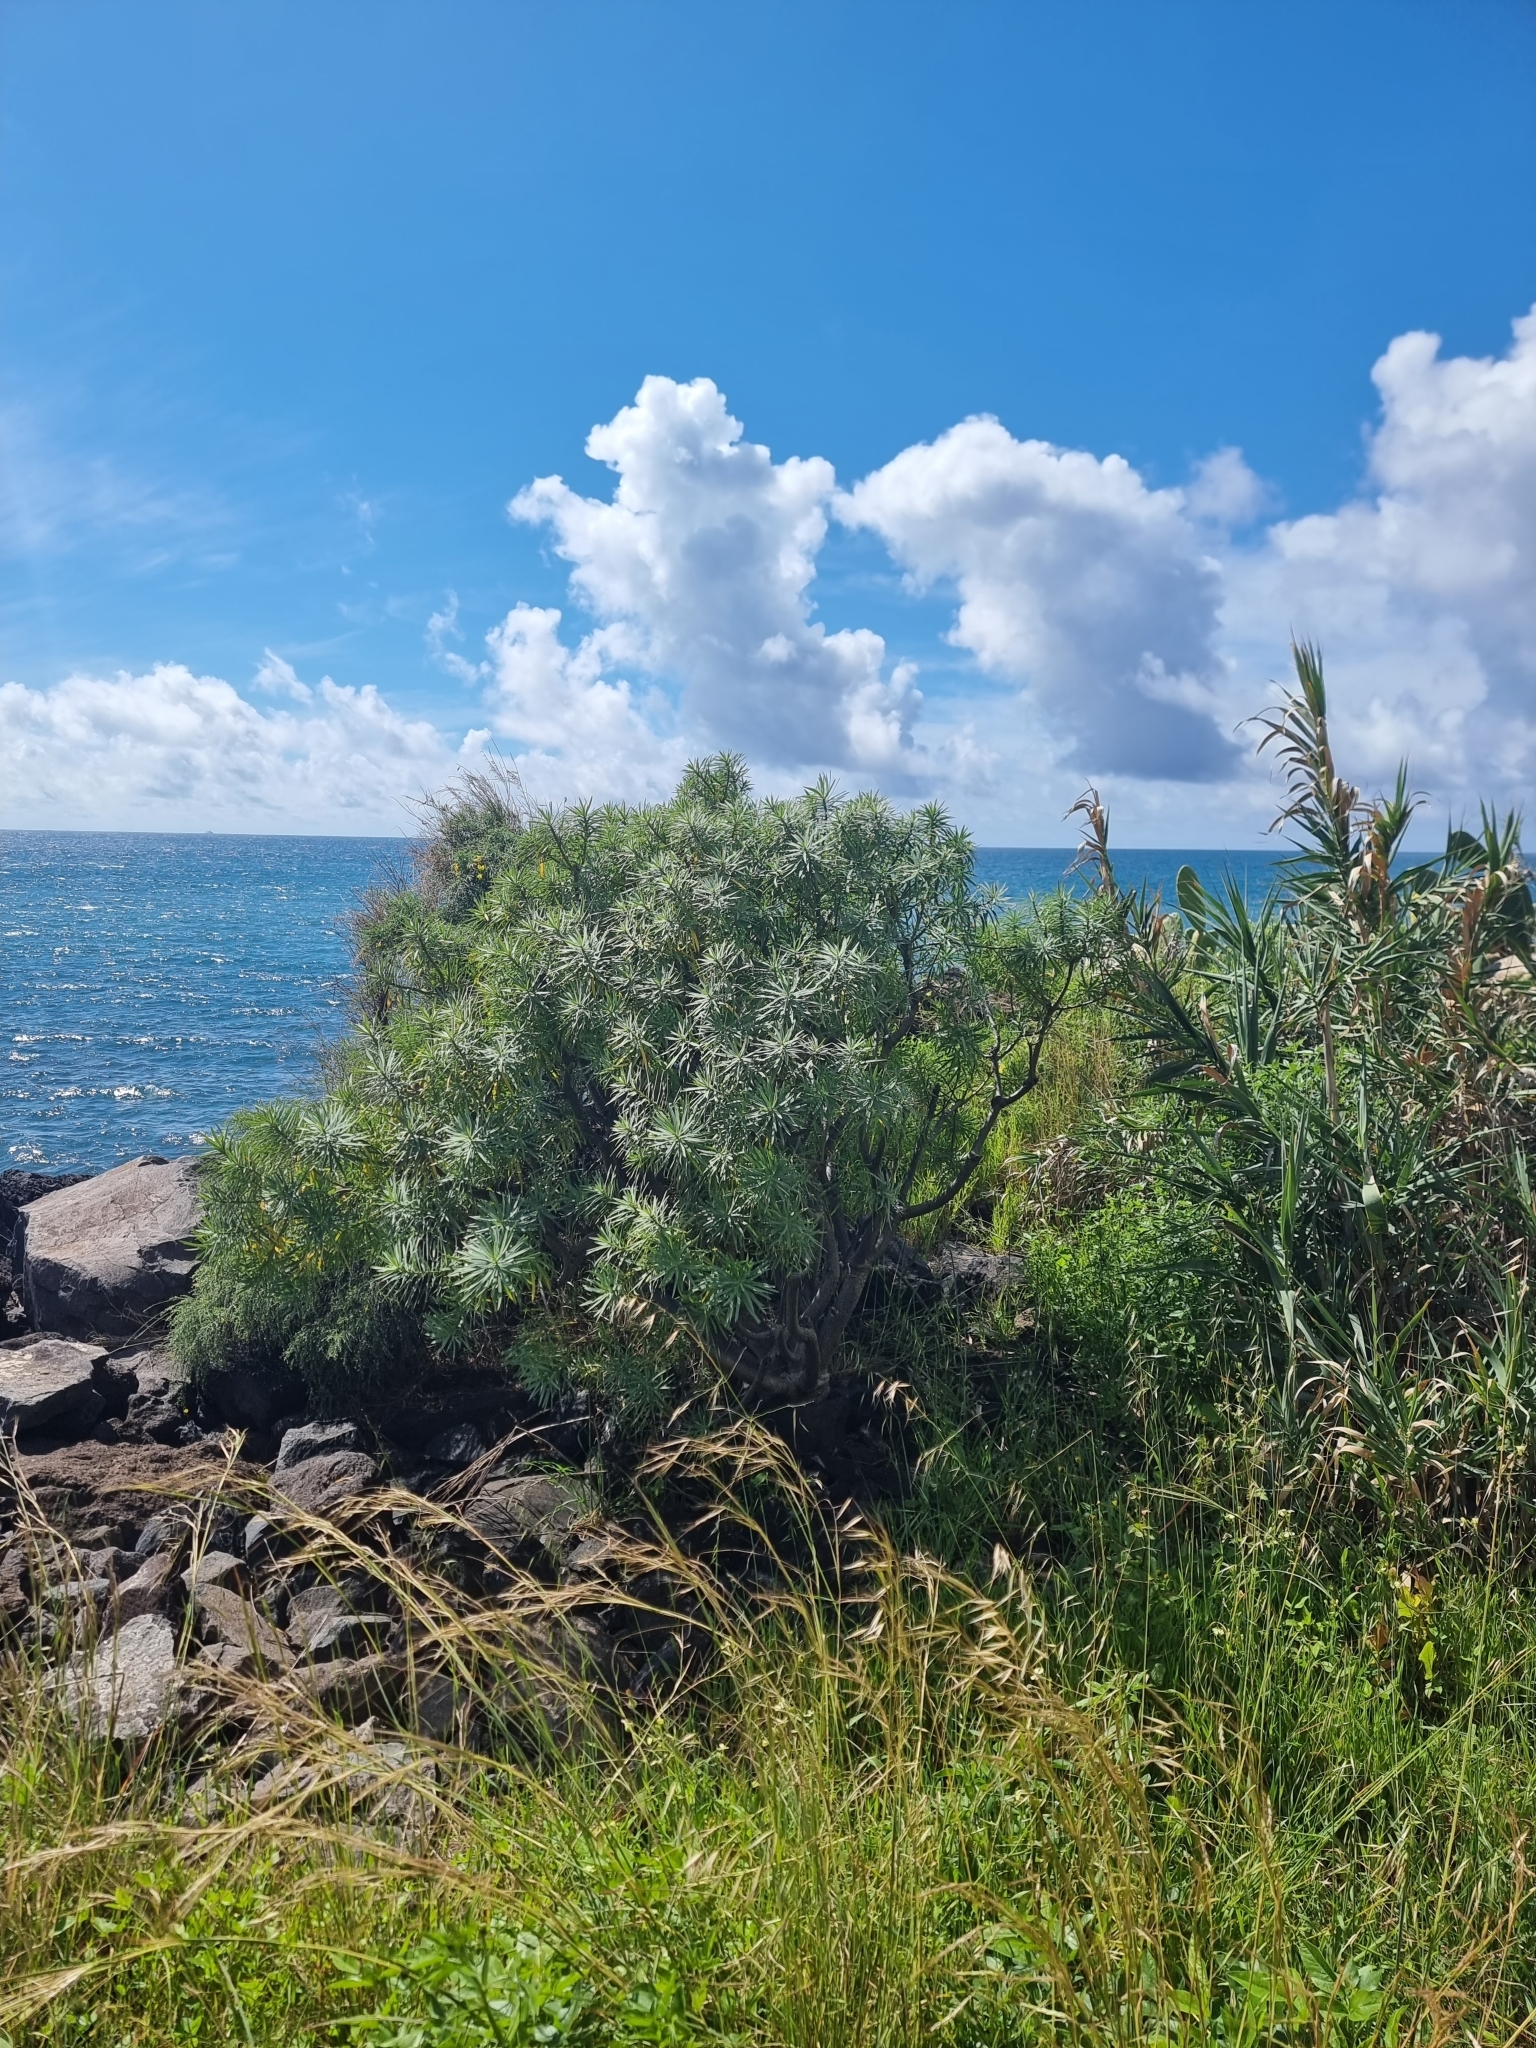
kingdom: Plantae
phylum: Tracheophyta
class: Magnoliopsida
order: Malpighiales
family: Euphorbiaceae
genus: Euphorbia
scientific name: Euphorbia piscatoria
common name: Fish-stunning spurge
